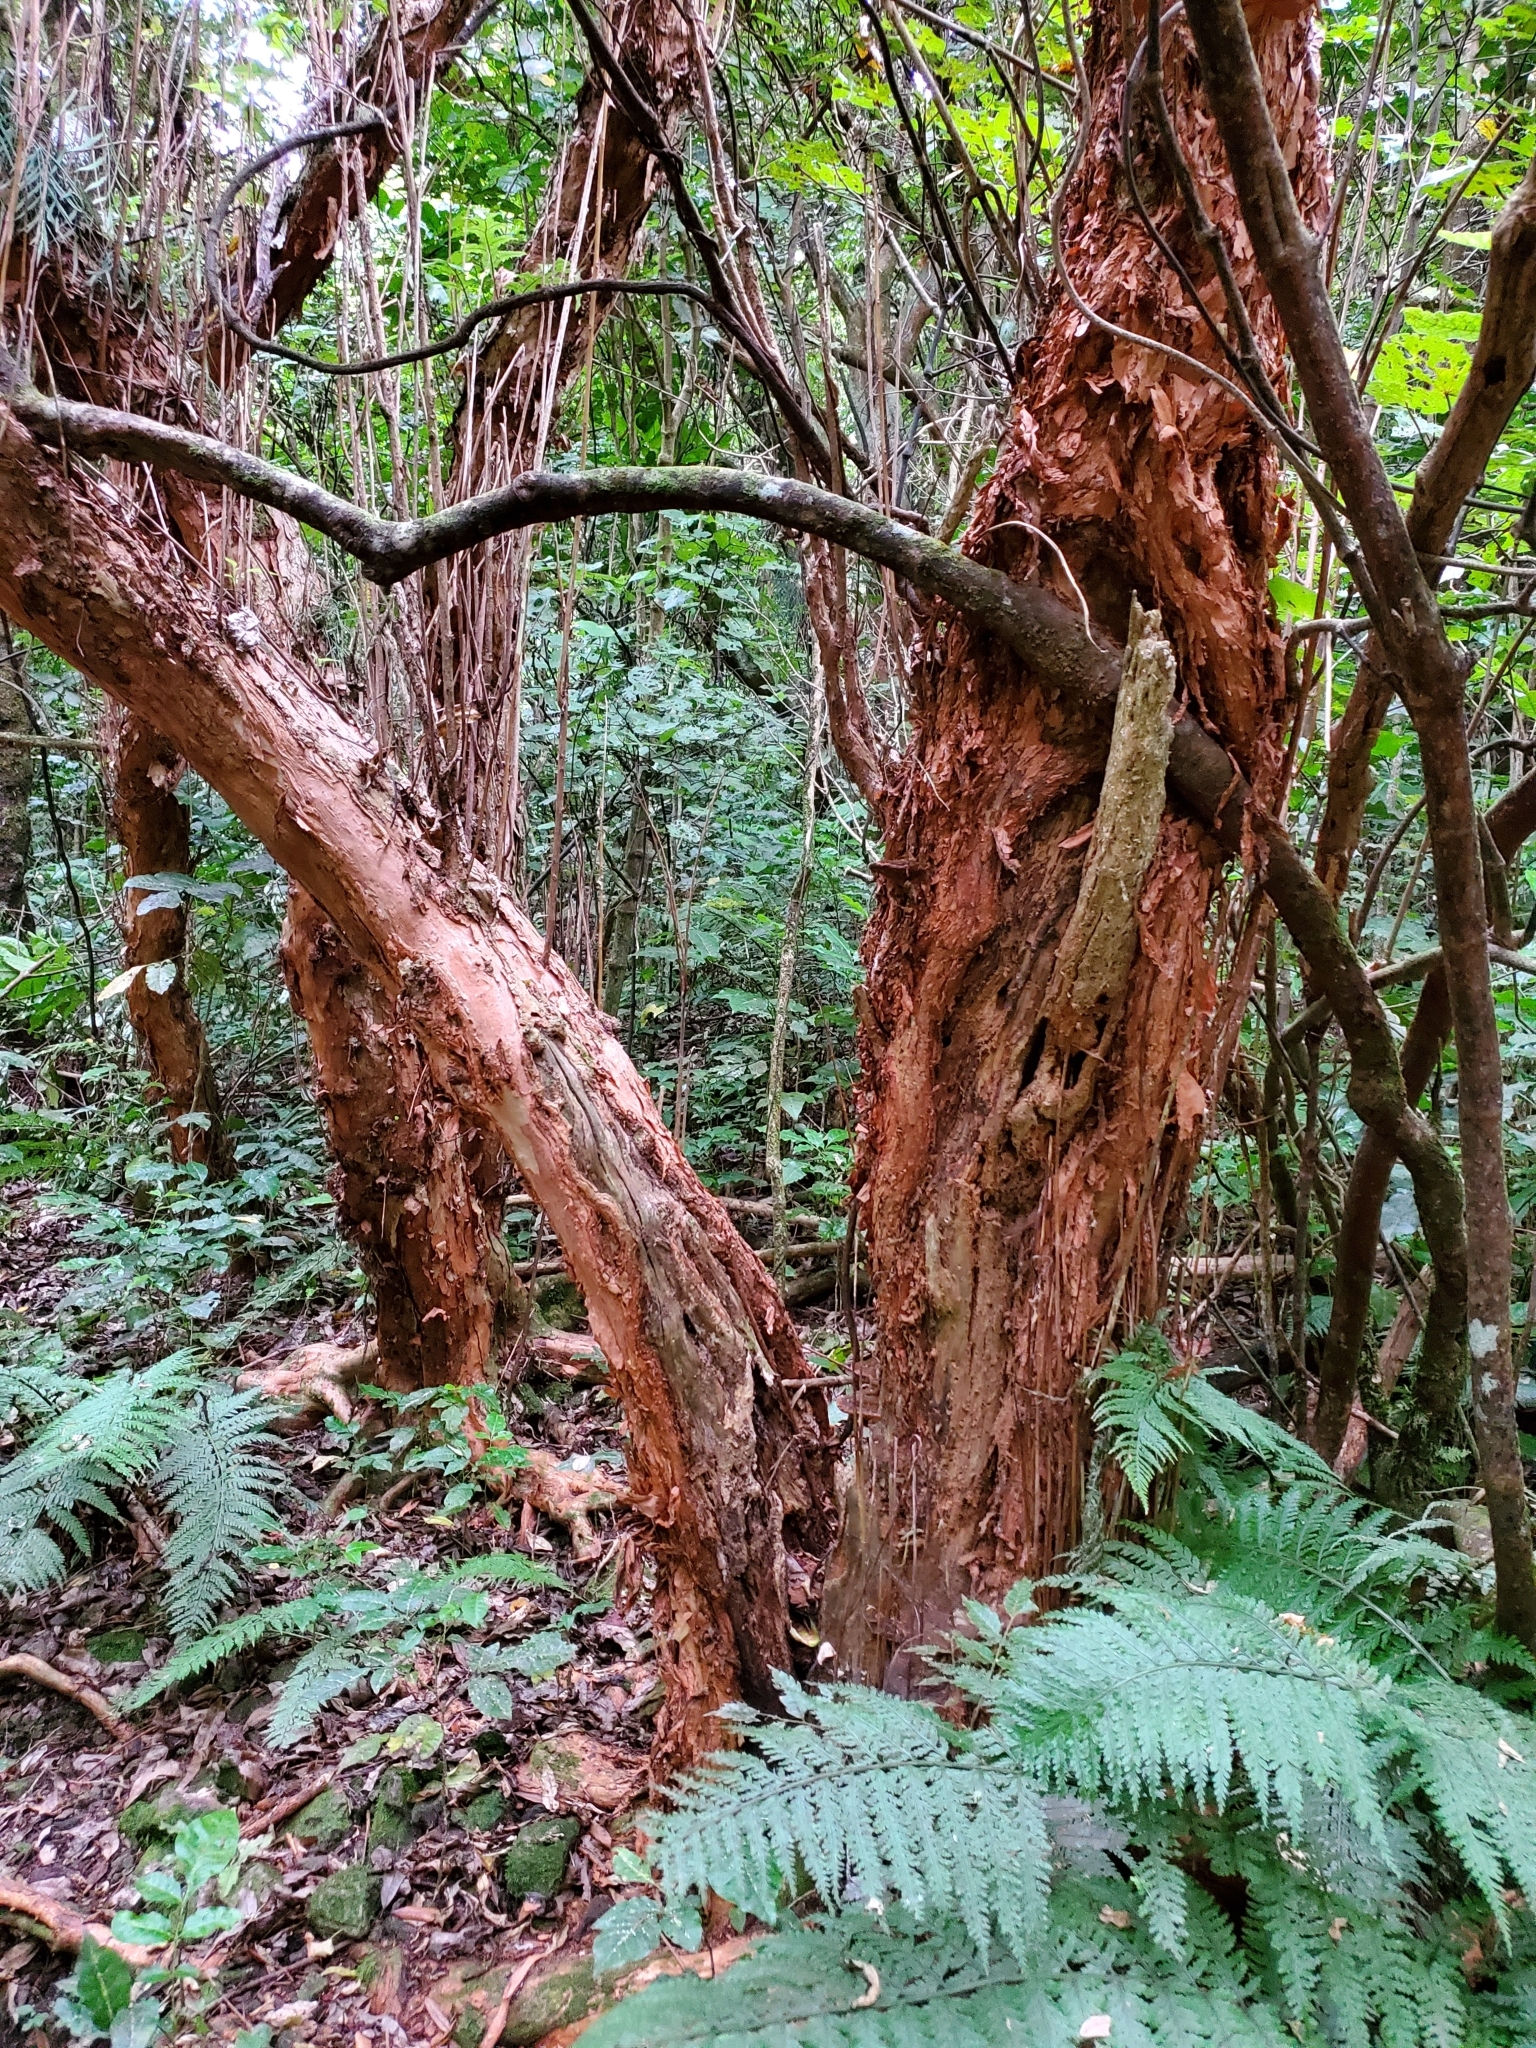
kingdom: Plantae
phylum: Tracheophyta
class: Magnoliopsida
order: Myrtales
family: Onagraceae
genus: Fuchsia
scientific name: Fuchsia excorticata
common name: Tree fuchsia
